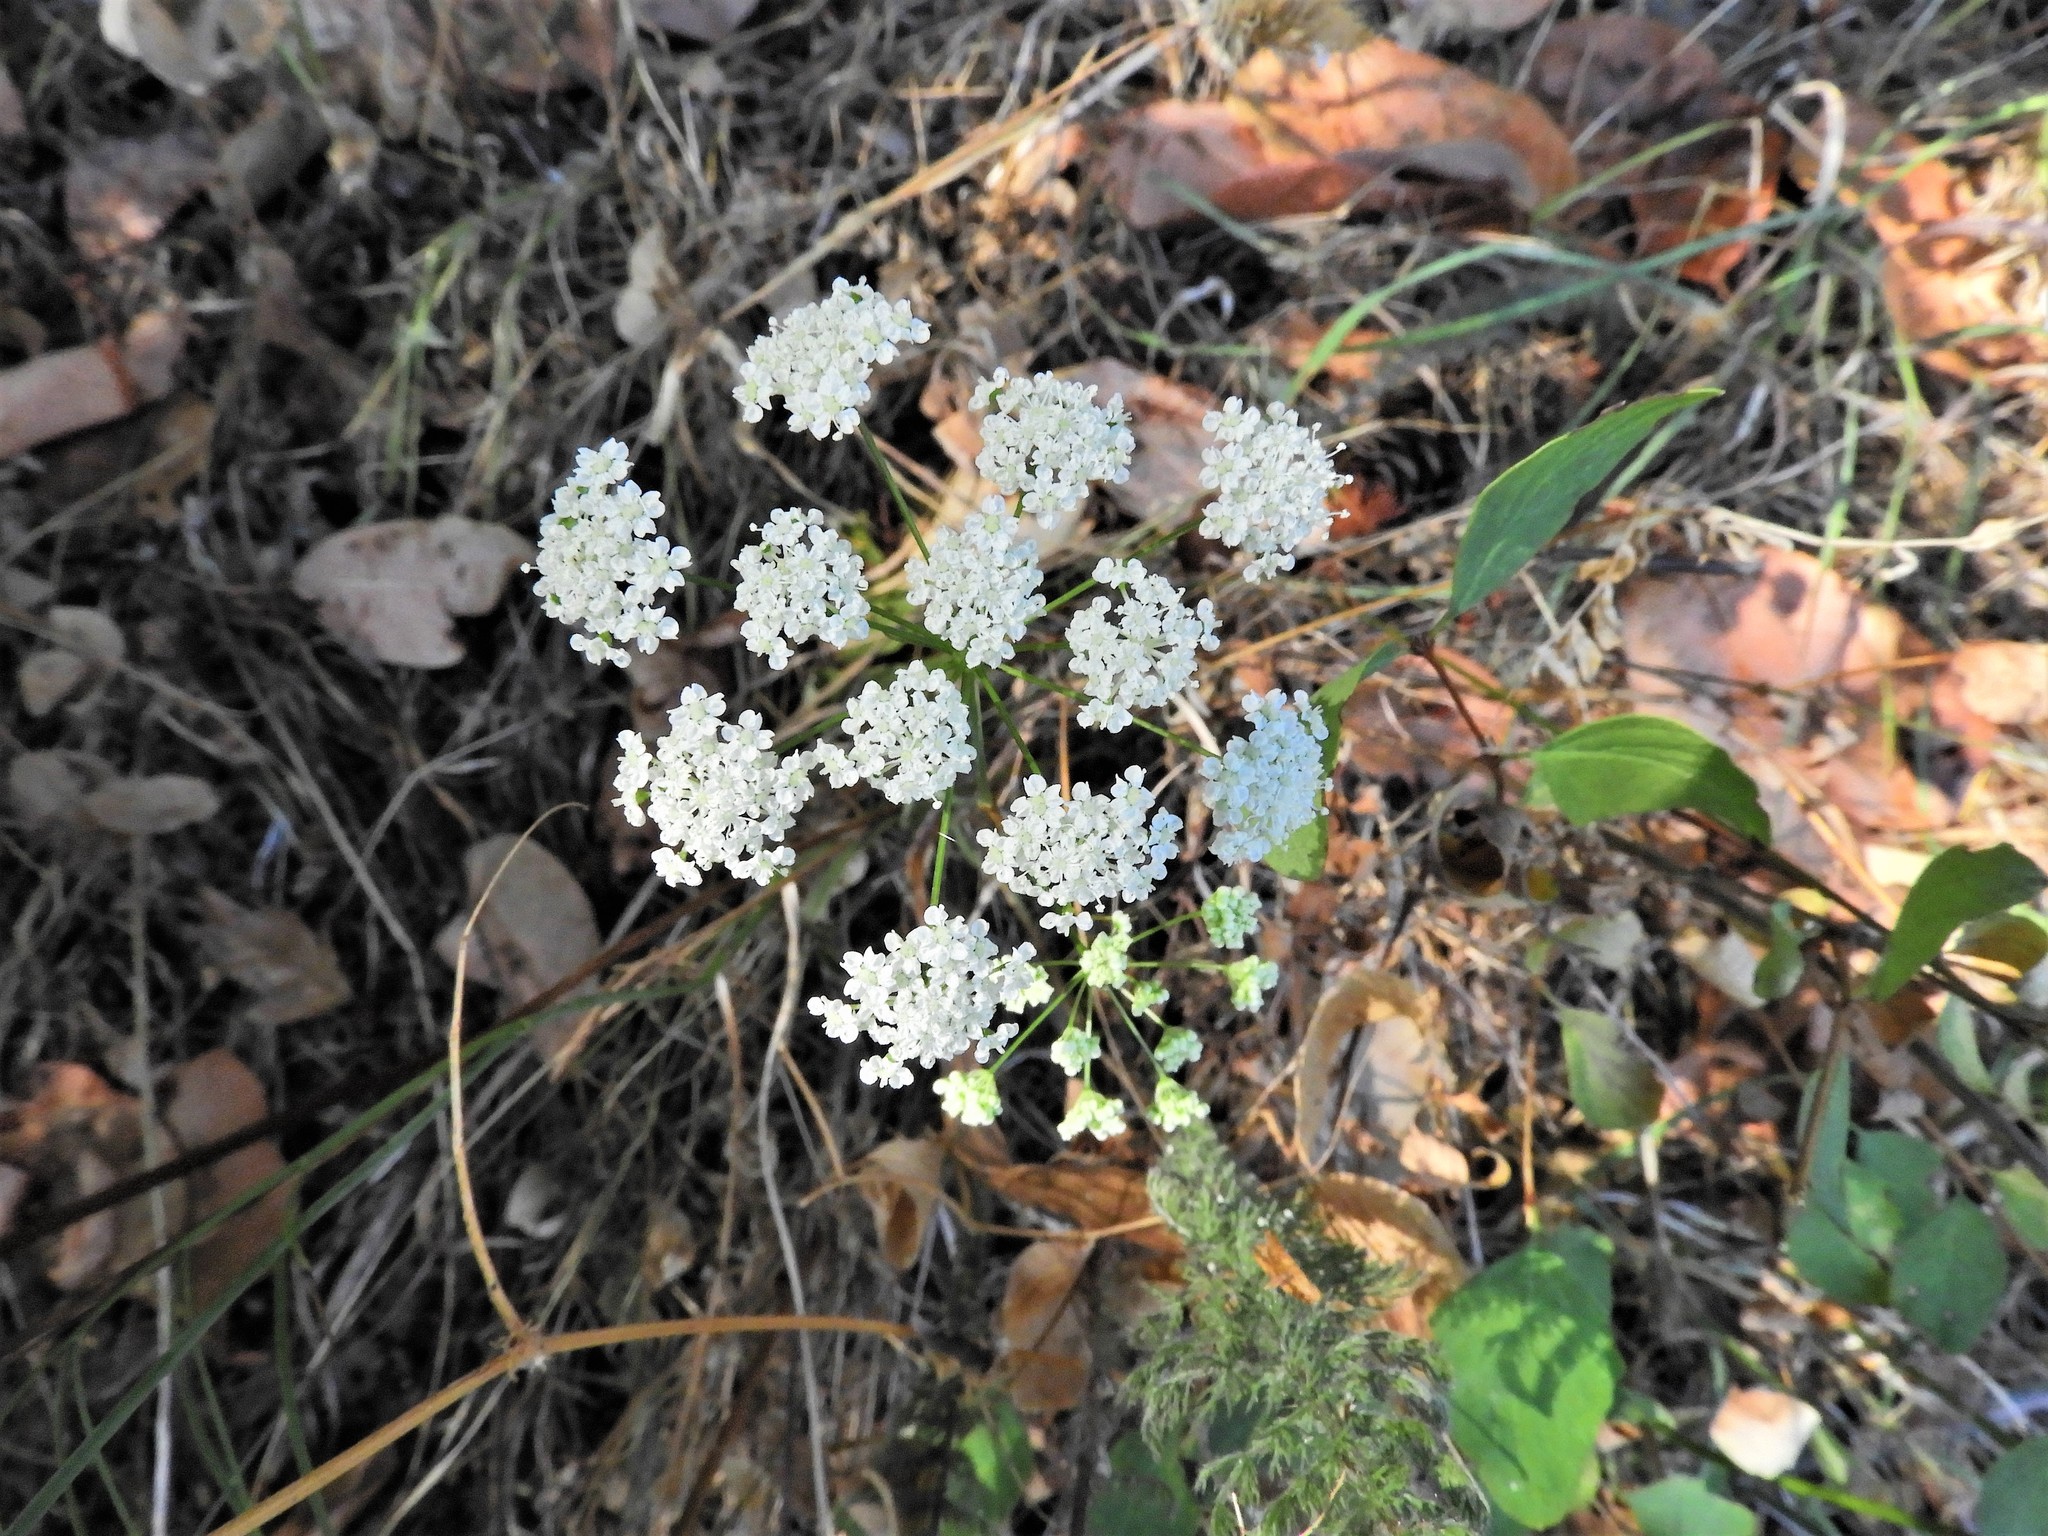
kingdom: Plantae
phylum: Tracheophyta
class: Magnoliopsida
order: Apiales
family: Apiaceae
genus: Perideridia
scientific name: Perideridia gairdneri
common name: False caraway
